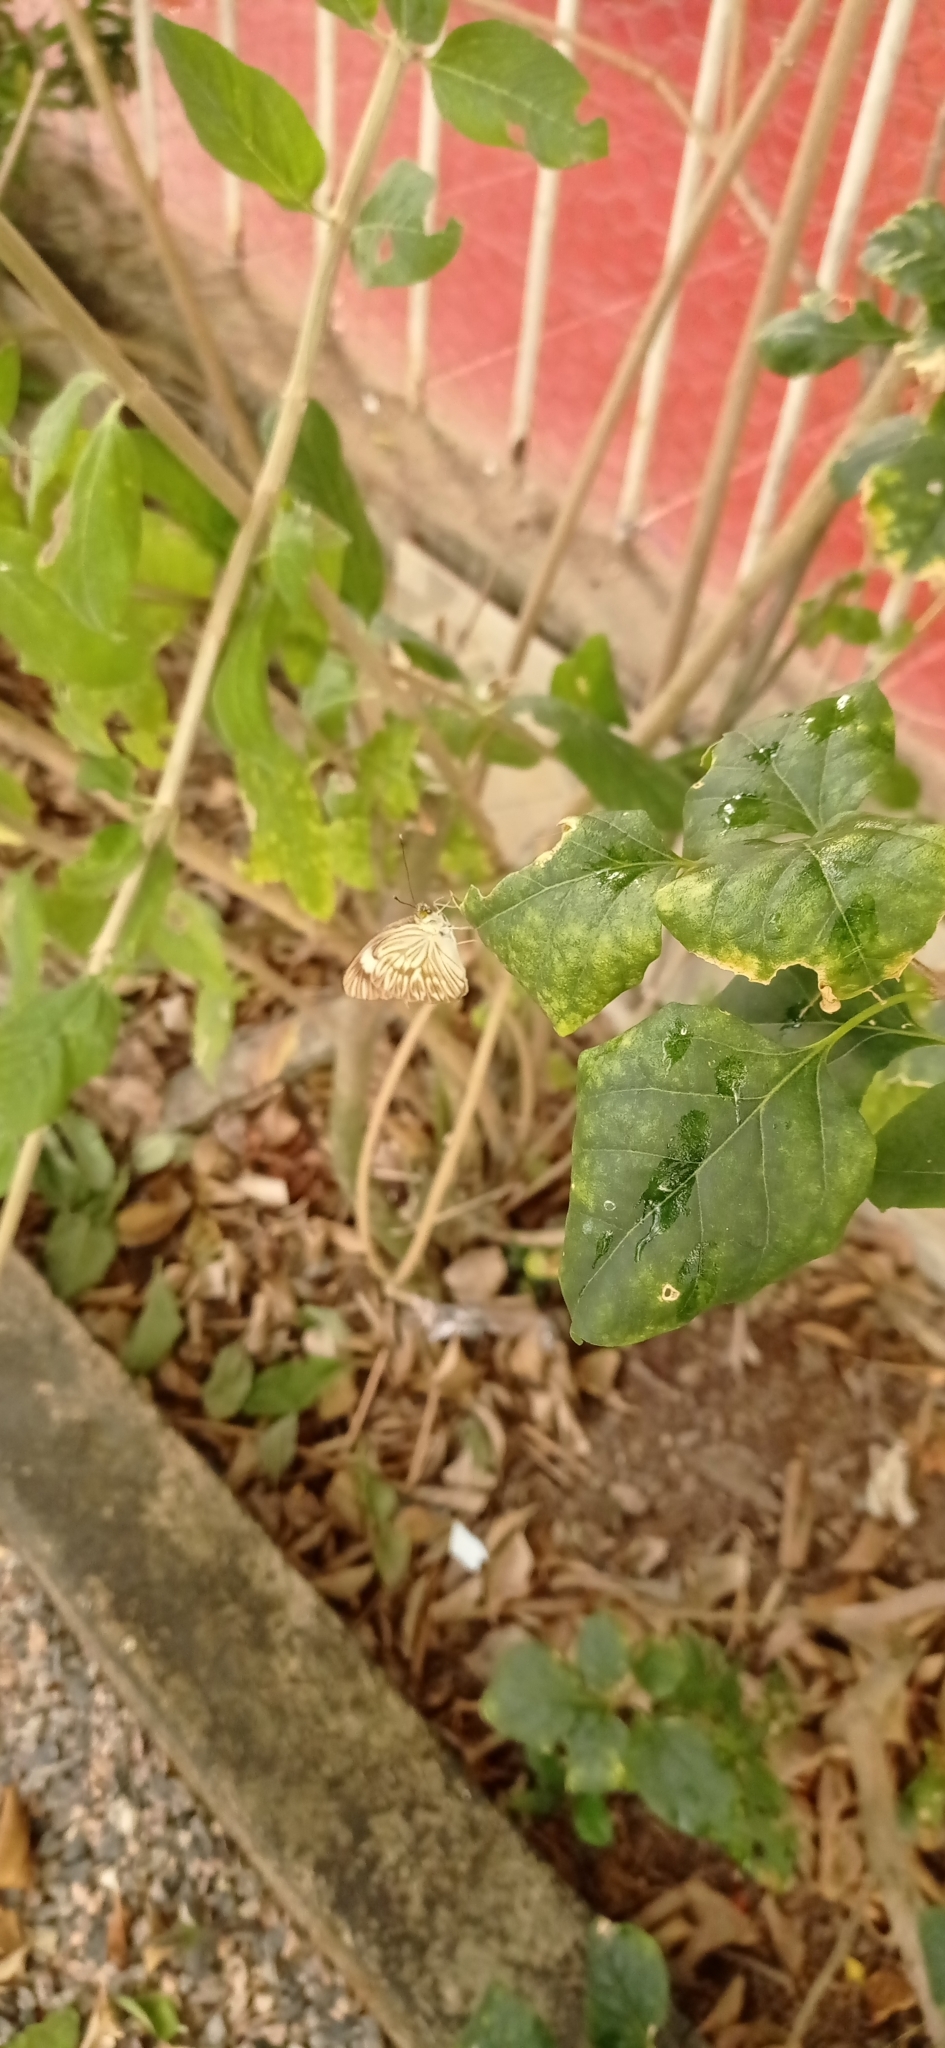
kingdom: Animalia
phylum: Arthropoda
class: Insecta
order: Lepidoptera
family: Pieridae
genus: Ascia
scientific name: Ascia monuste
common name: Great southern white
